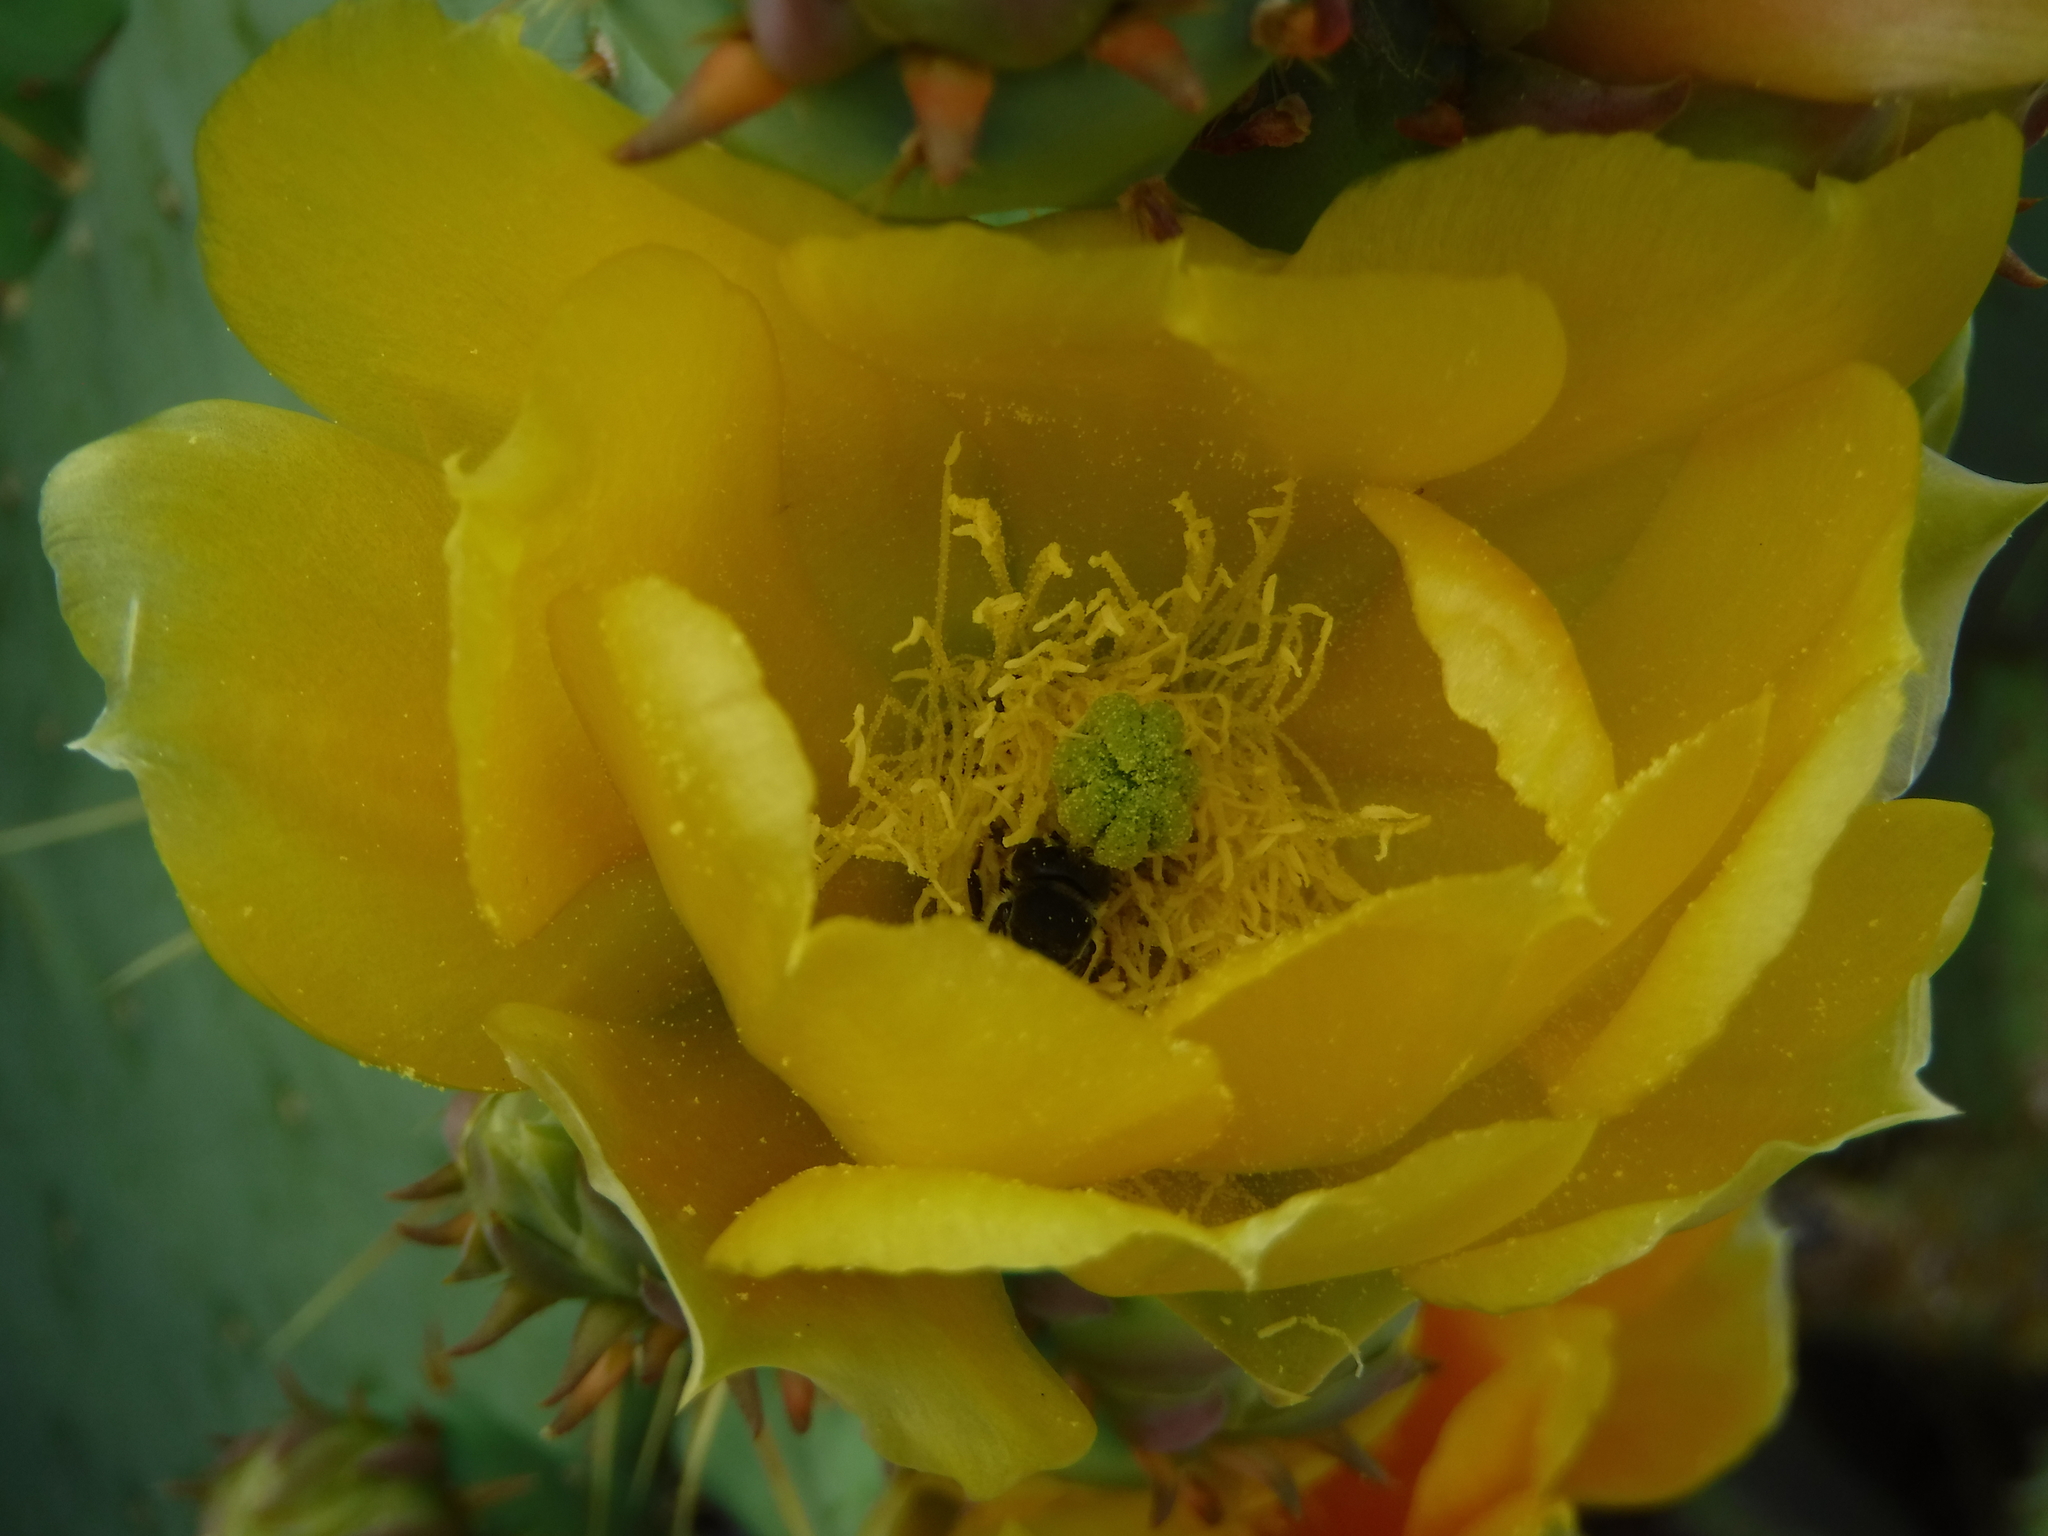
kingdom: Animalia
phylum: Arthropoda
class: Insecta
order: Hymenoptera
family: Megachilidae
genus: Lithurgopsis
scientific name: Lithurgopsis apicalis
